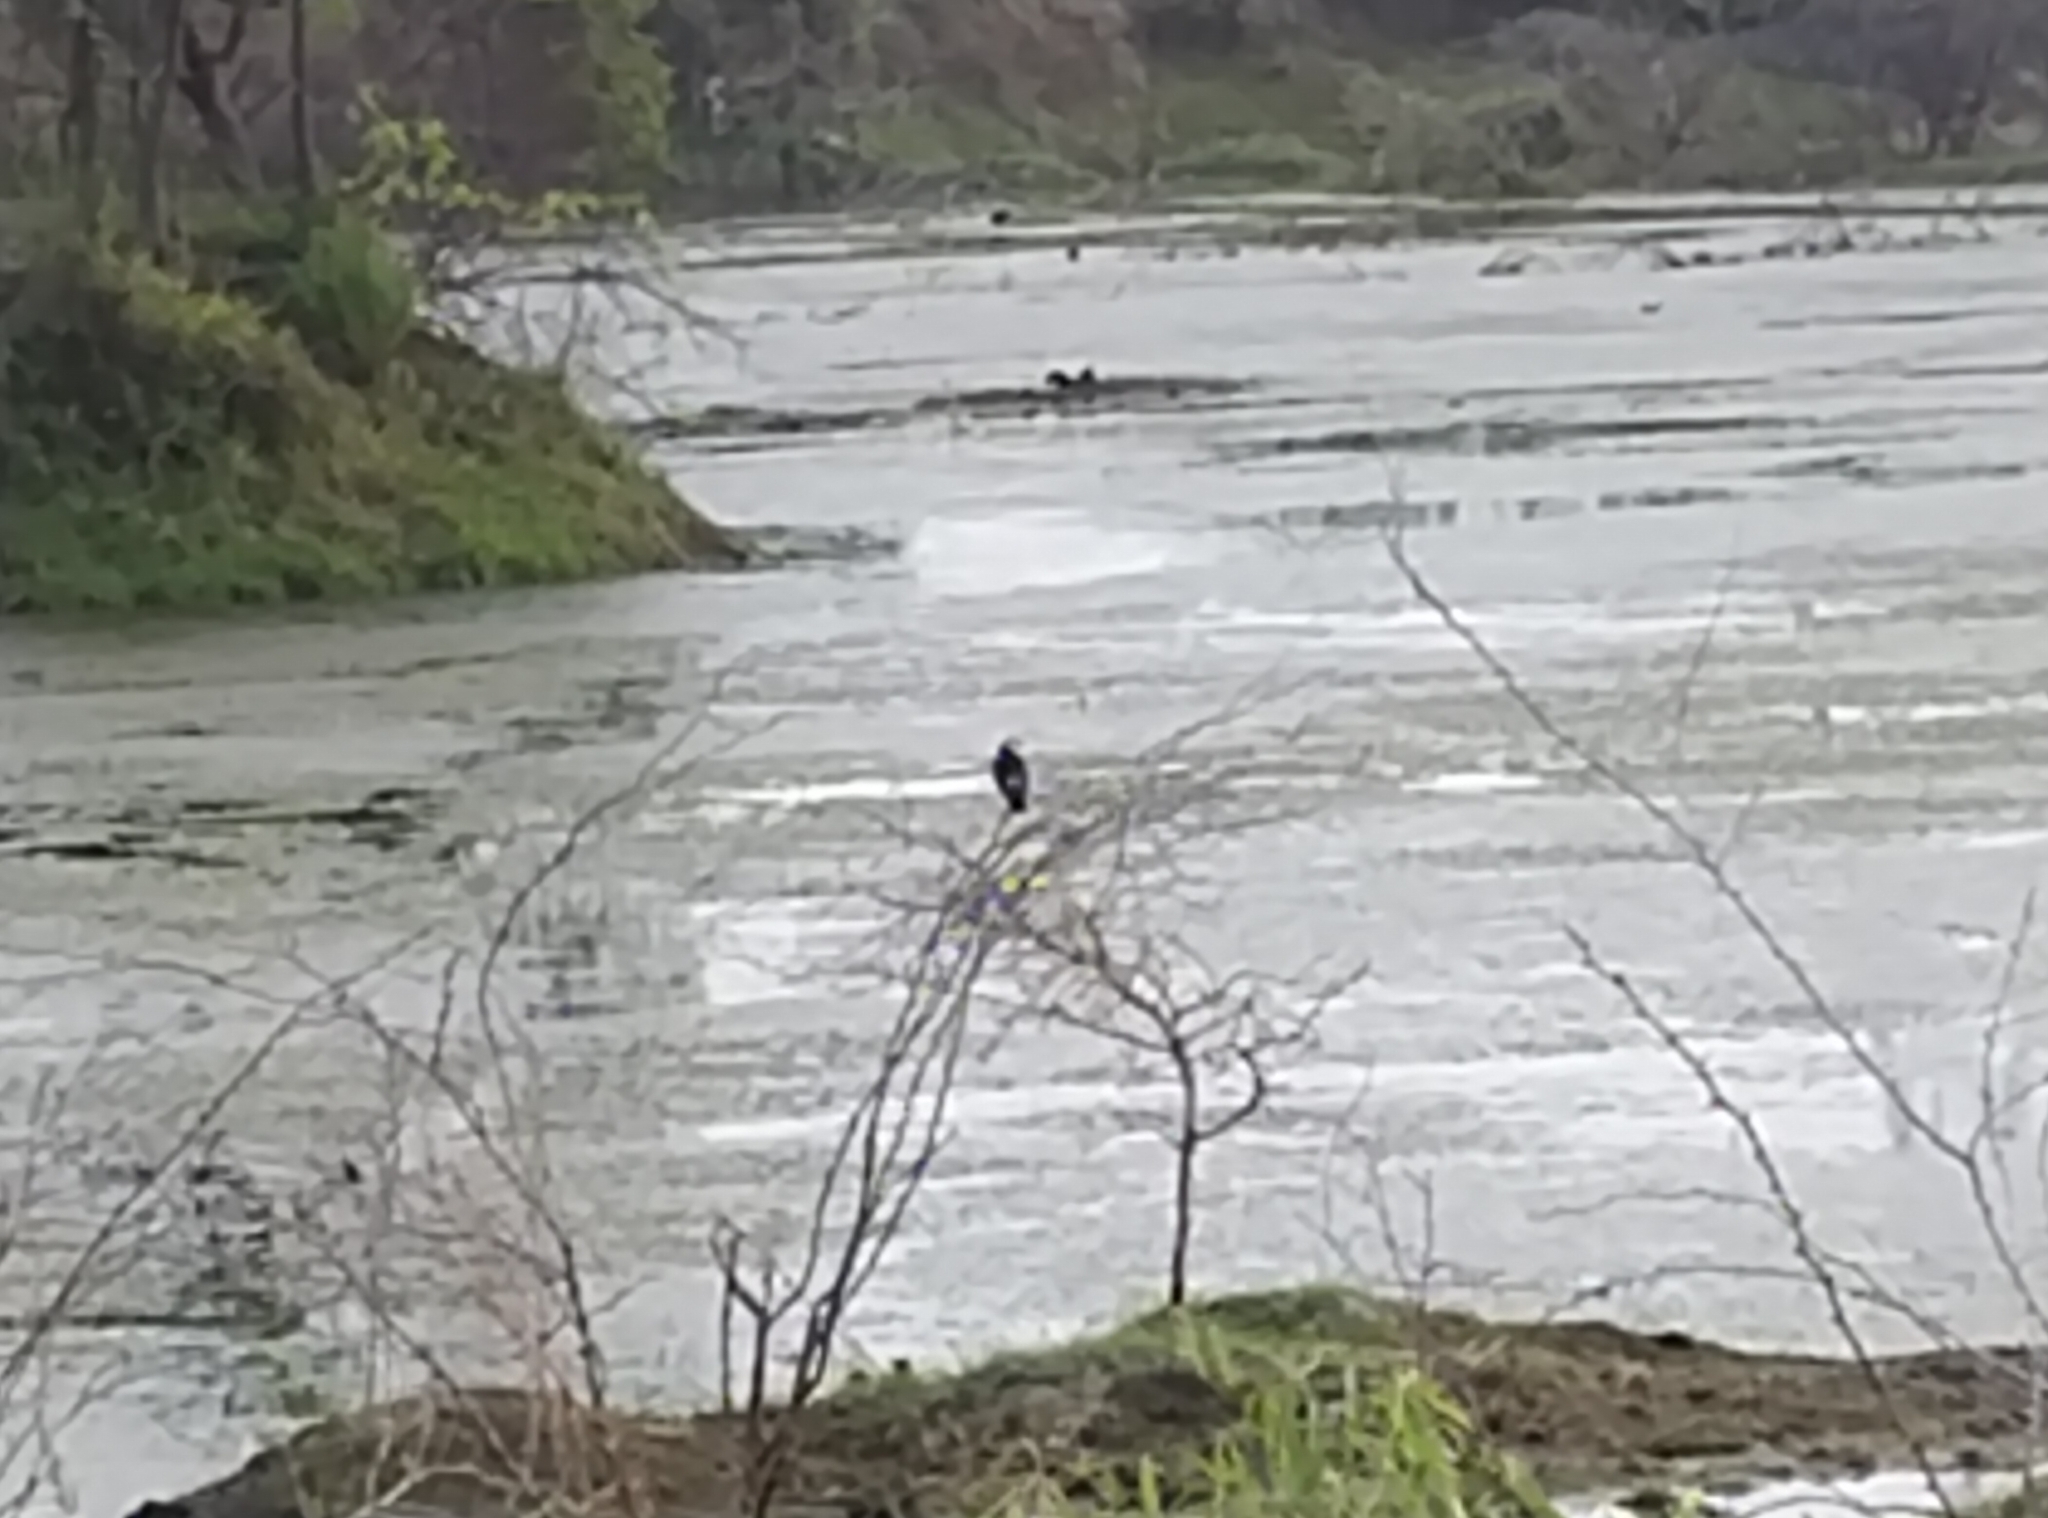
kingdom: Animalia
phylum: Chordata
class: Aves
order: Passeriformes
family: Sturnidae
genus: Gracupica
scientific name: Gracupica contra
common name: Pied myna
